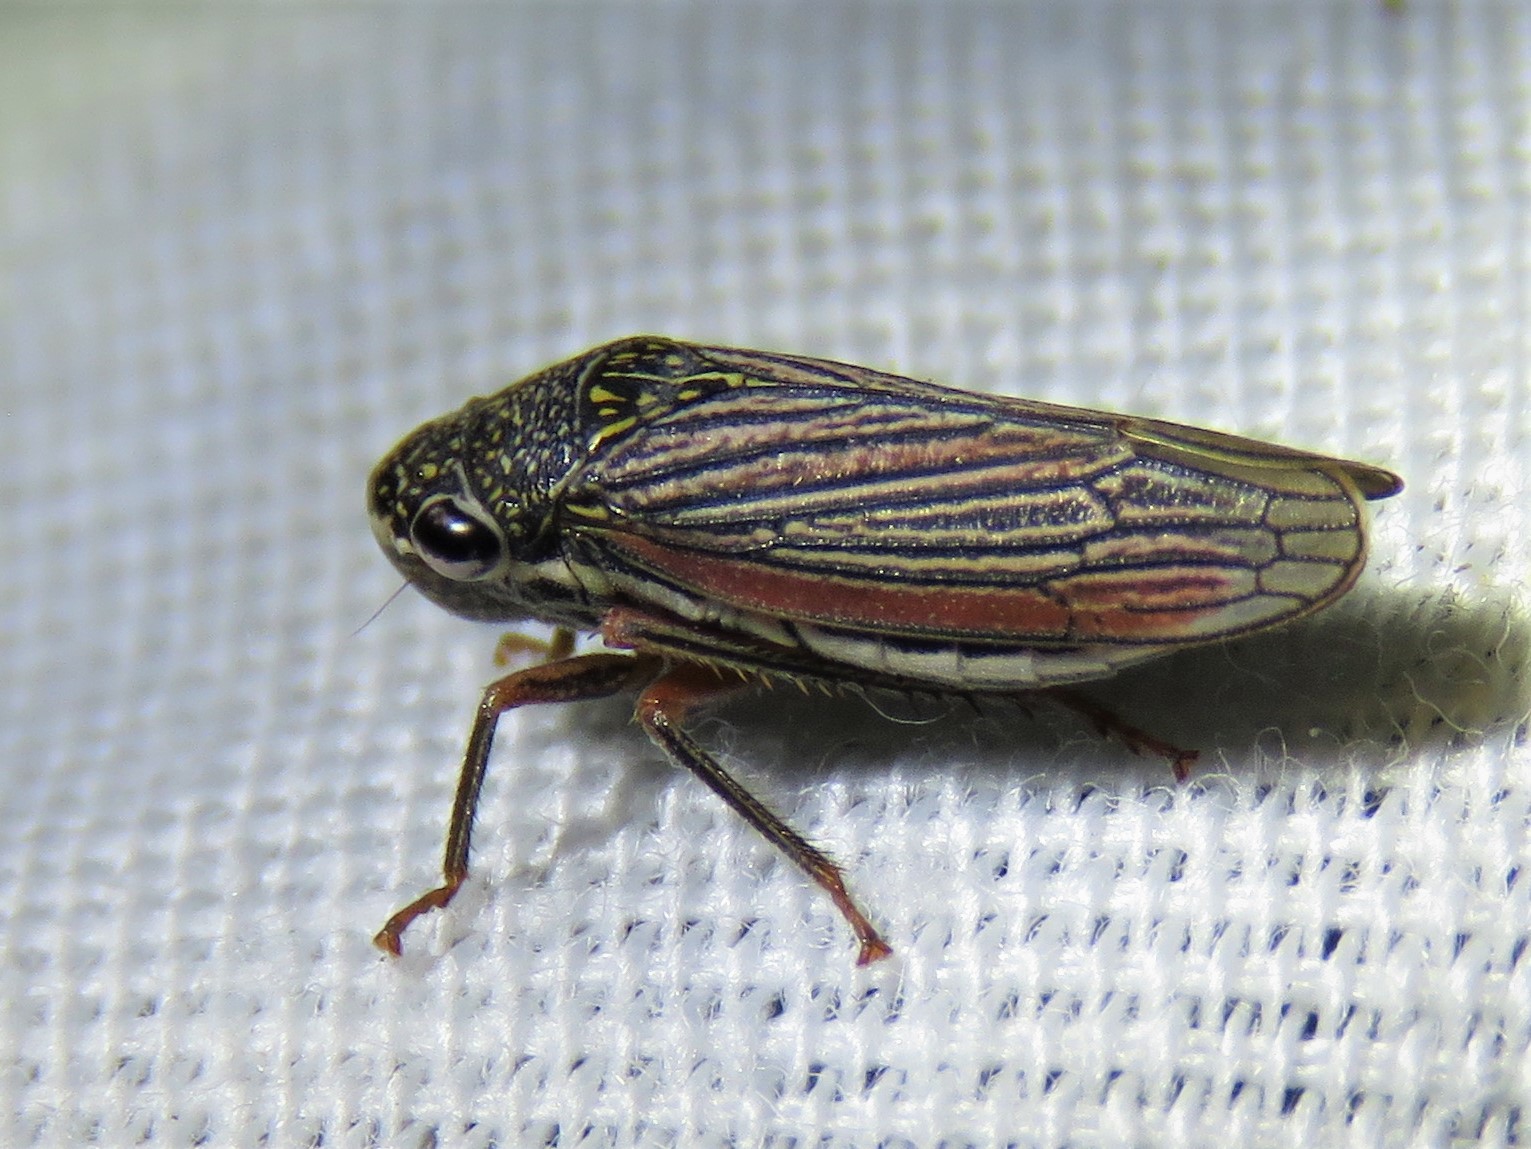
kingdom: Animalia
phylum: Arthropoda
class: Insecta
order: Hemiptera
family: Cicadellidae
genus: Cuerna
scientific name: Cuerna costalis
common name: Lateral-lined sharpshooter
